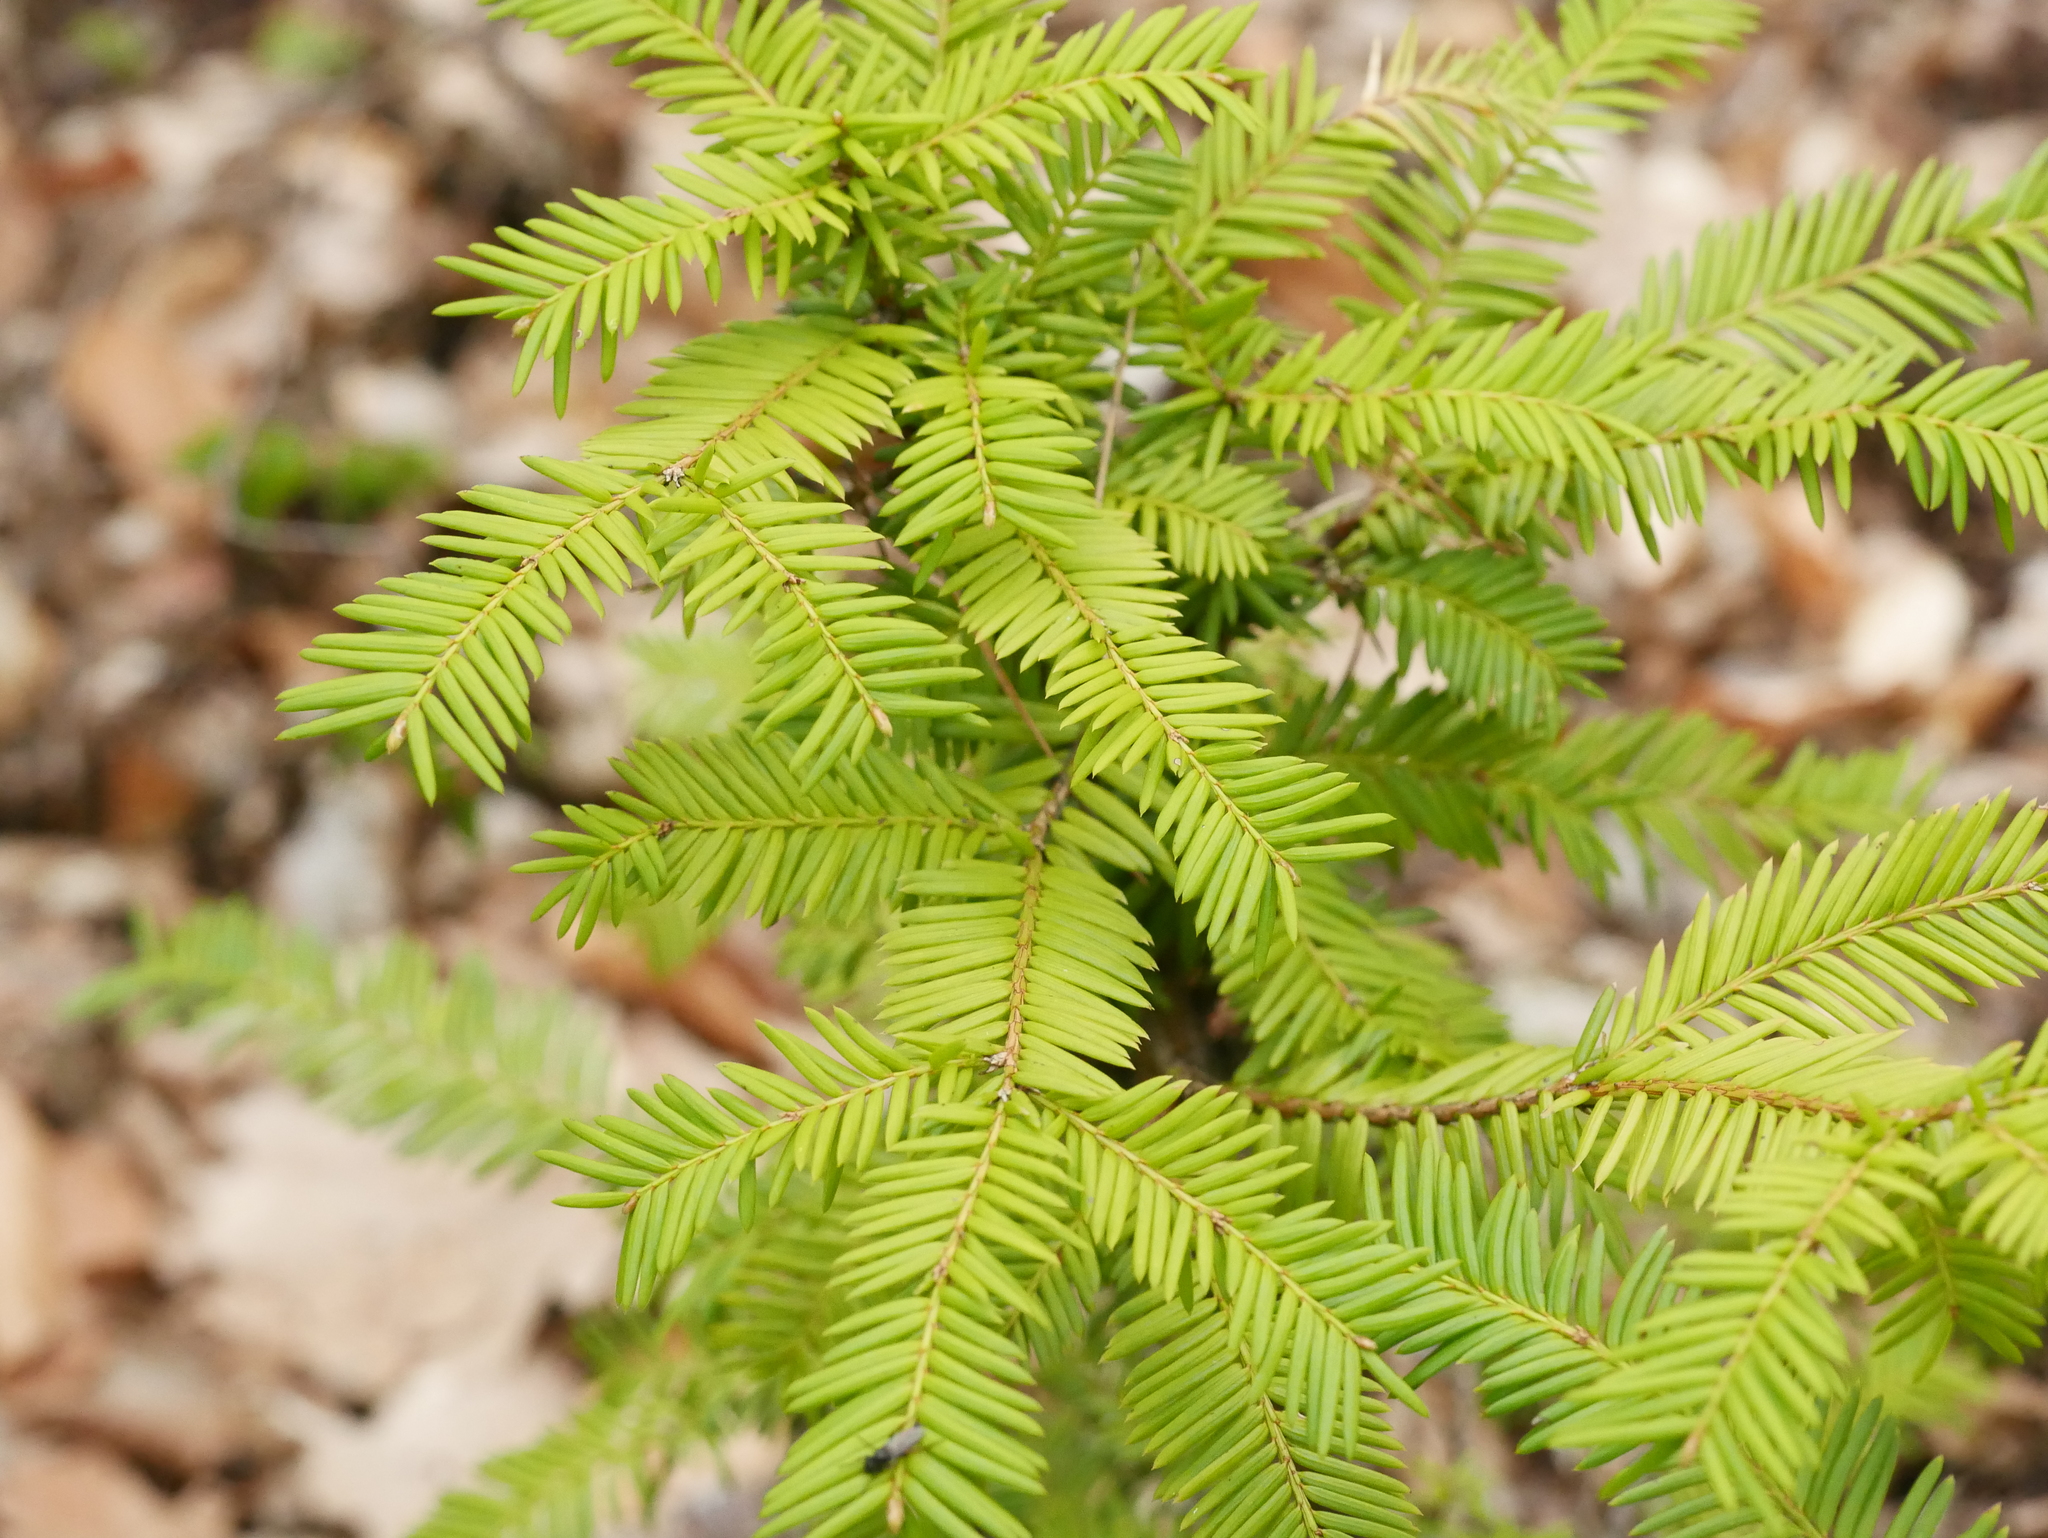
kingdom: Plantae
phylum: Tracheophyta
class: Pinopsida
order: Pinales
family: Taxaceae
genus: Taxus
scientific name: Taxus baccata
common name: Yew
